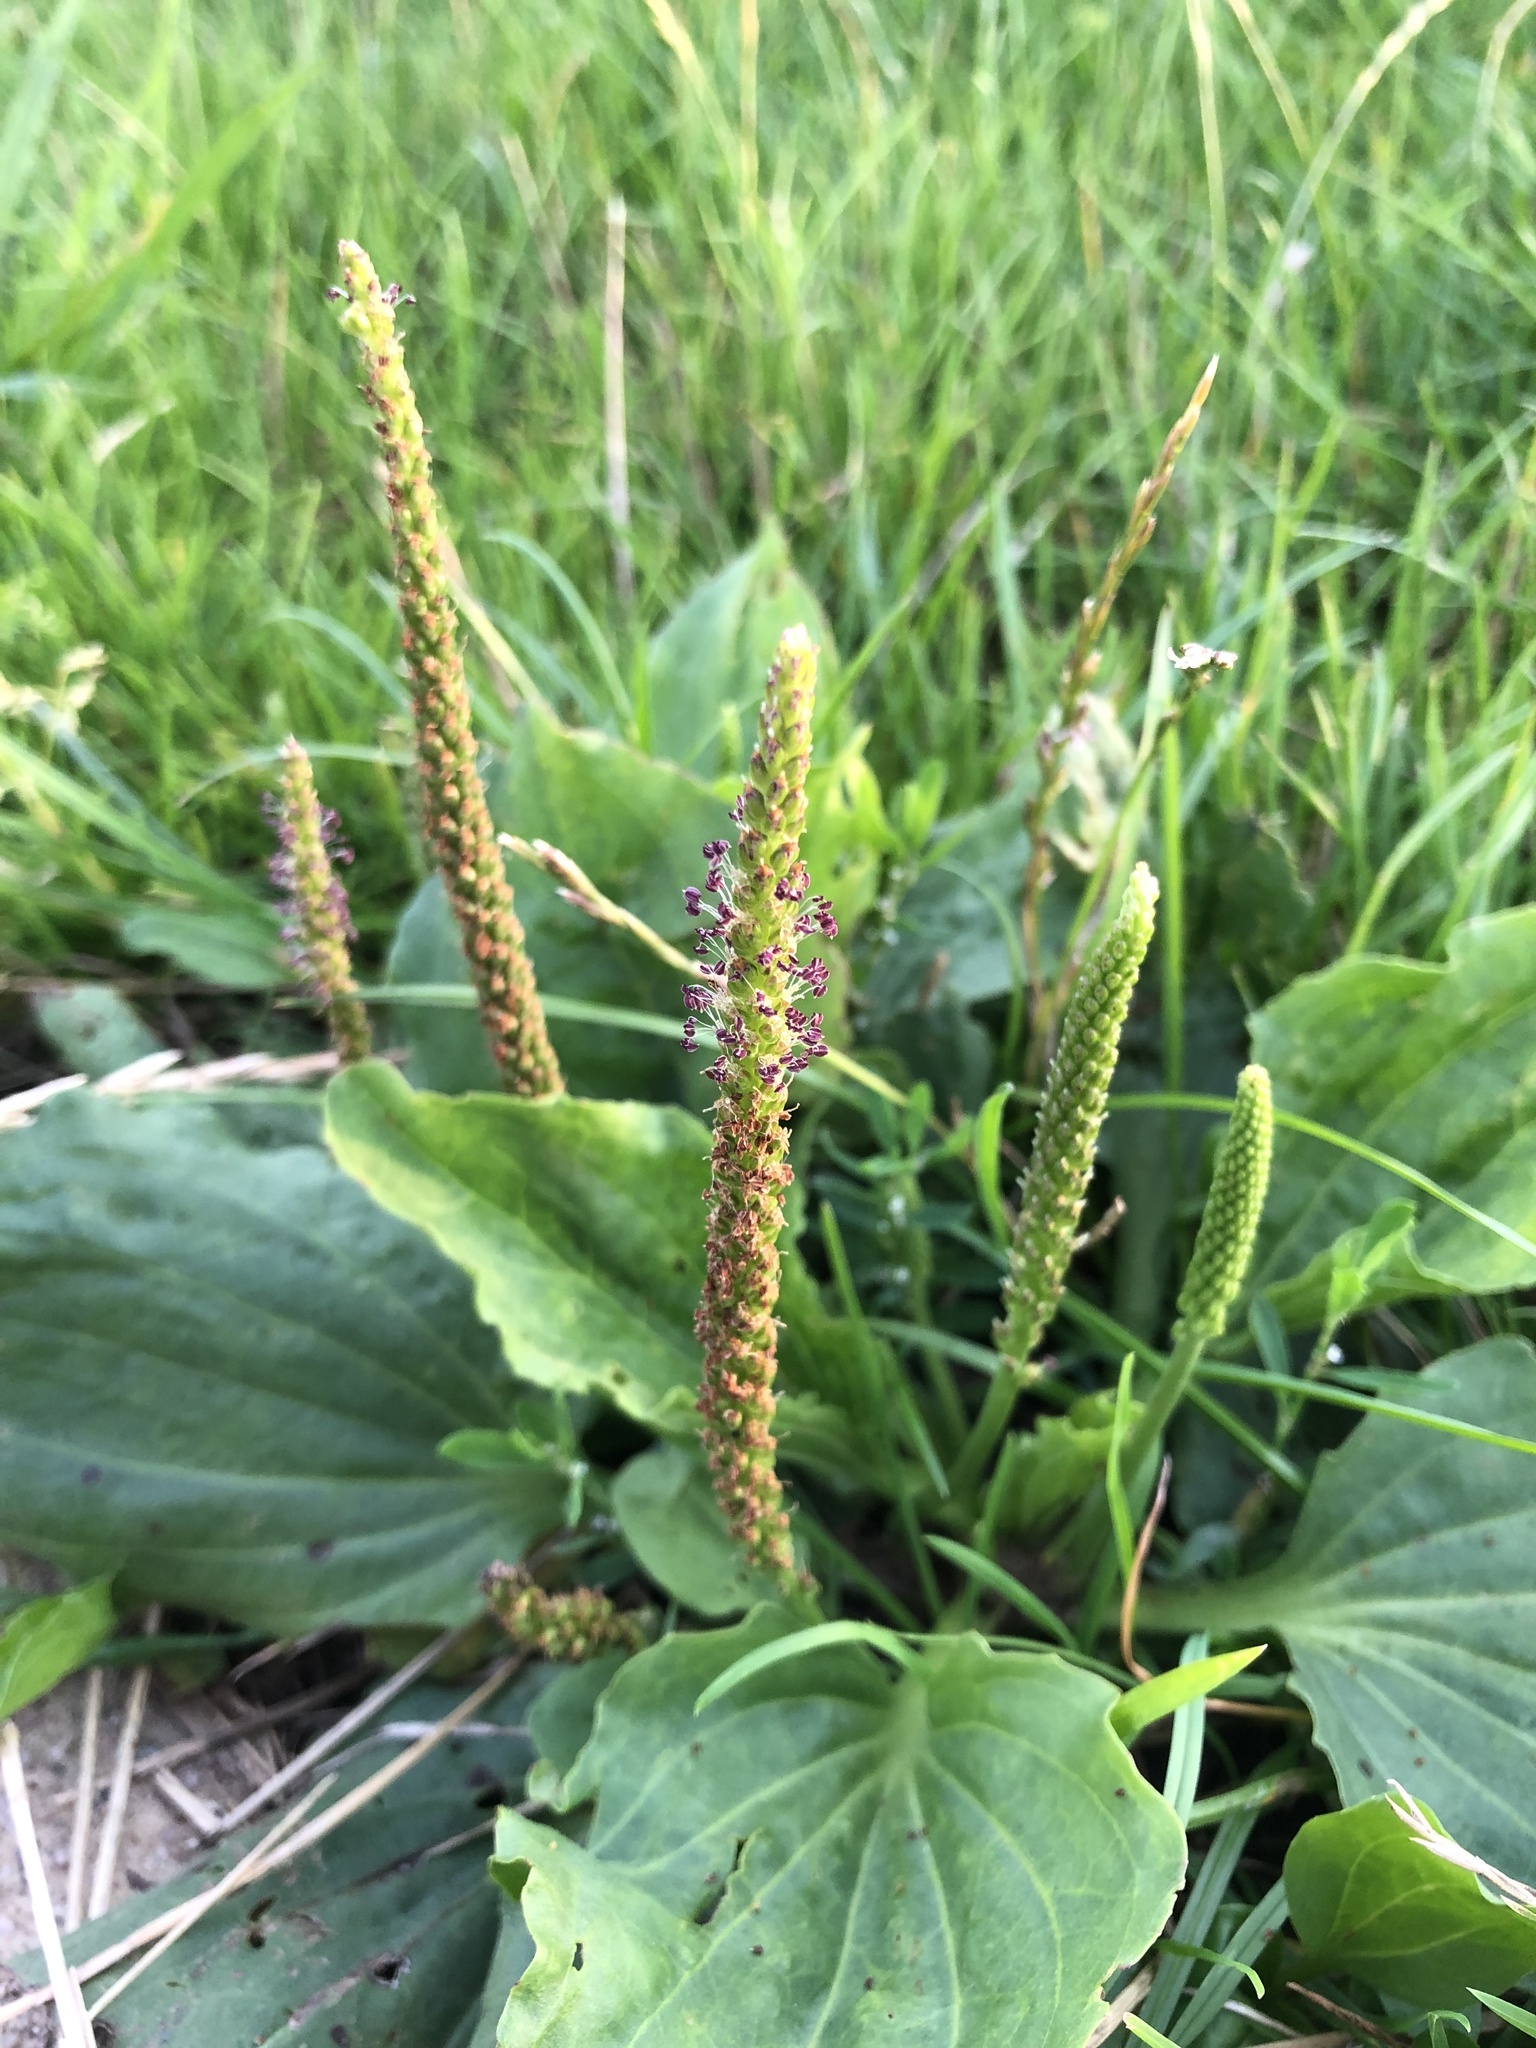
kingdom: Plantae
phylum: Tracheophyta
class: Magnoliopsida
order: Lamiales
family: Plantaginaceae
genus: Plantago
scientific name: Plantago major
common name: Common plantain
